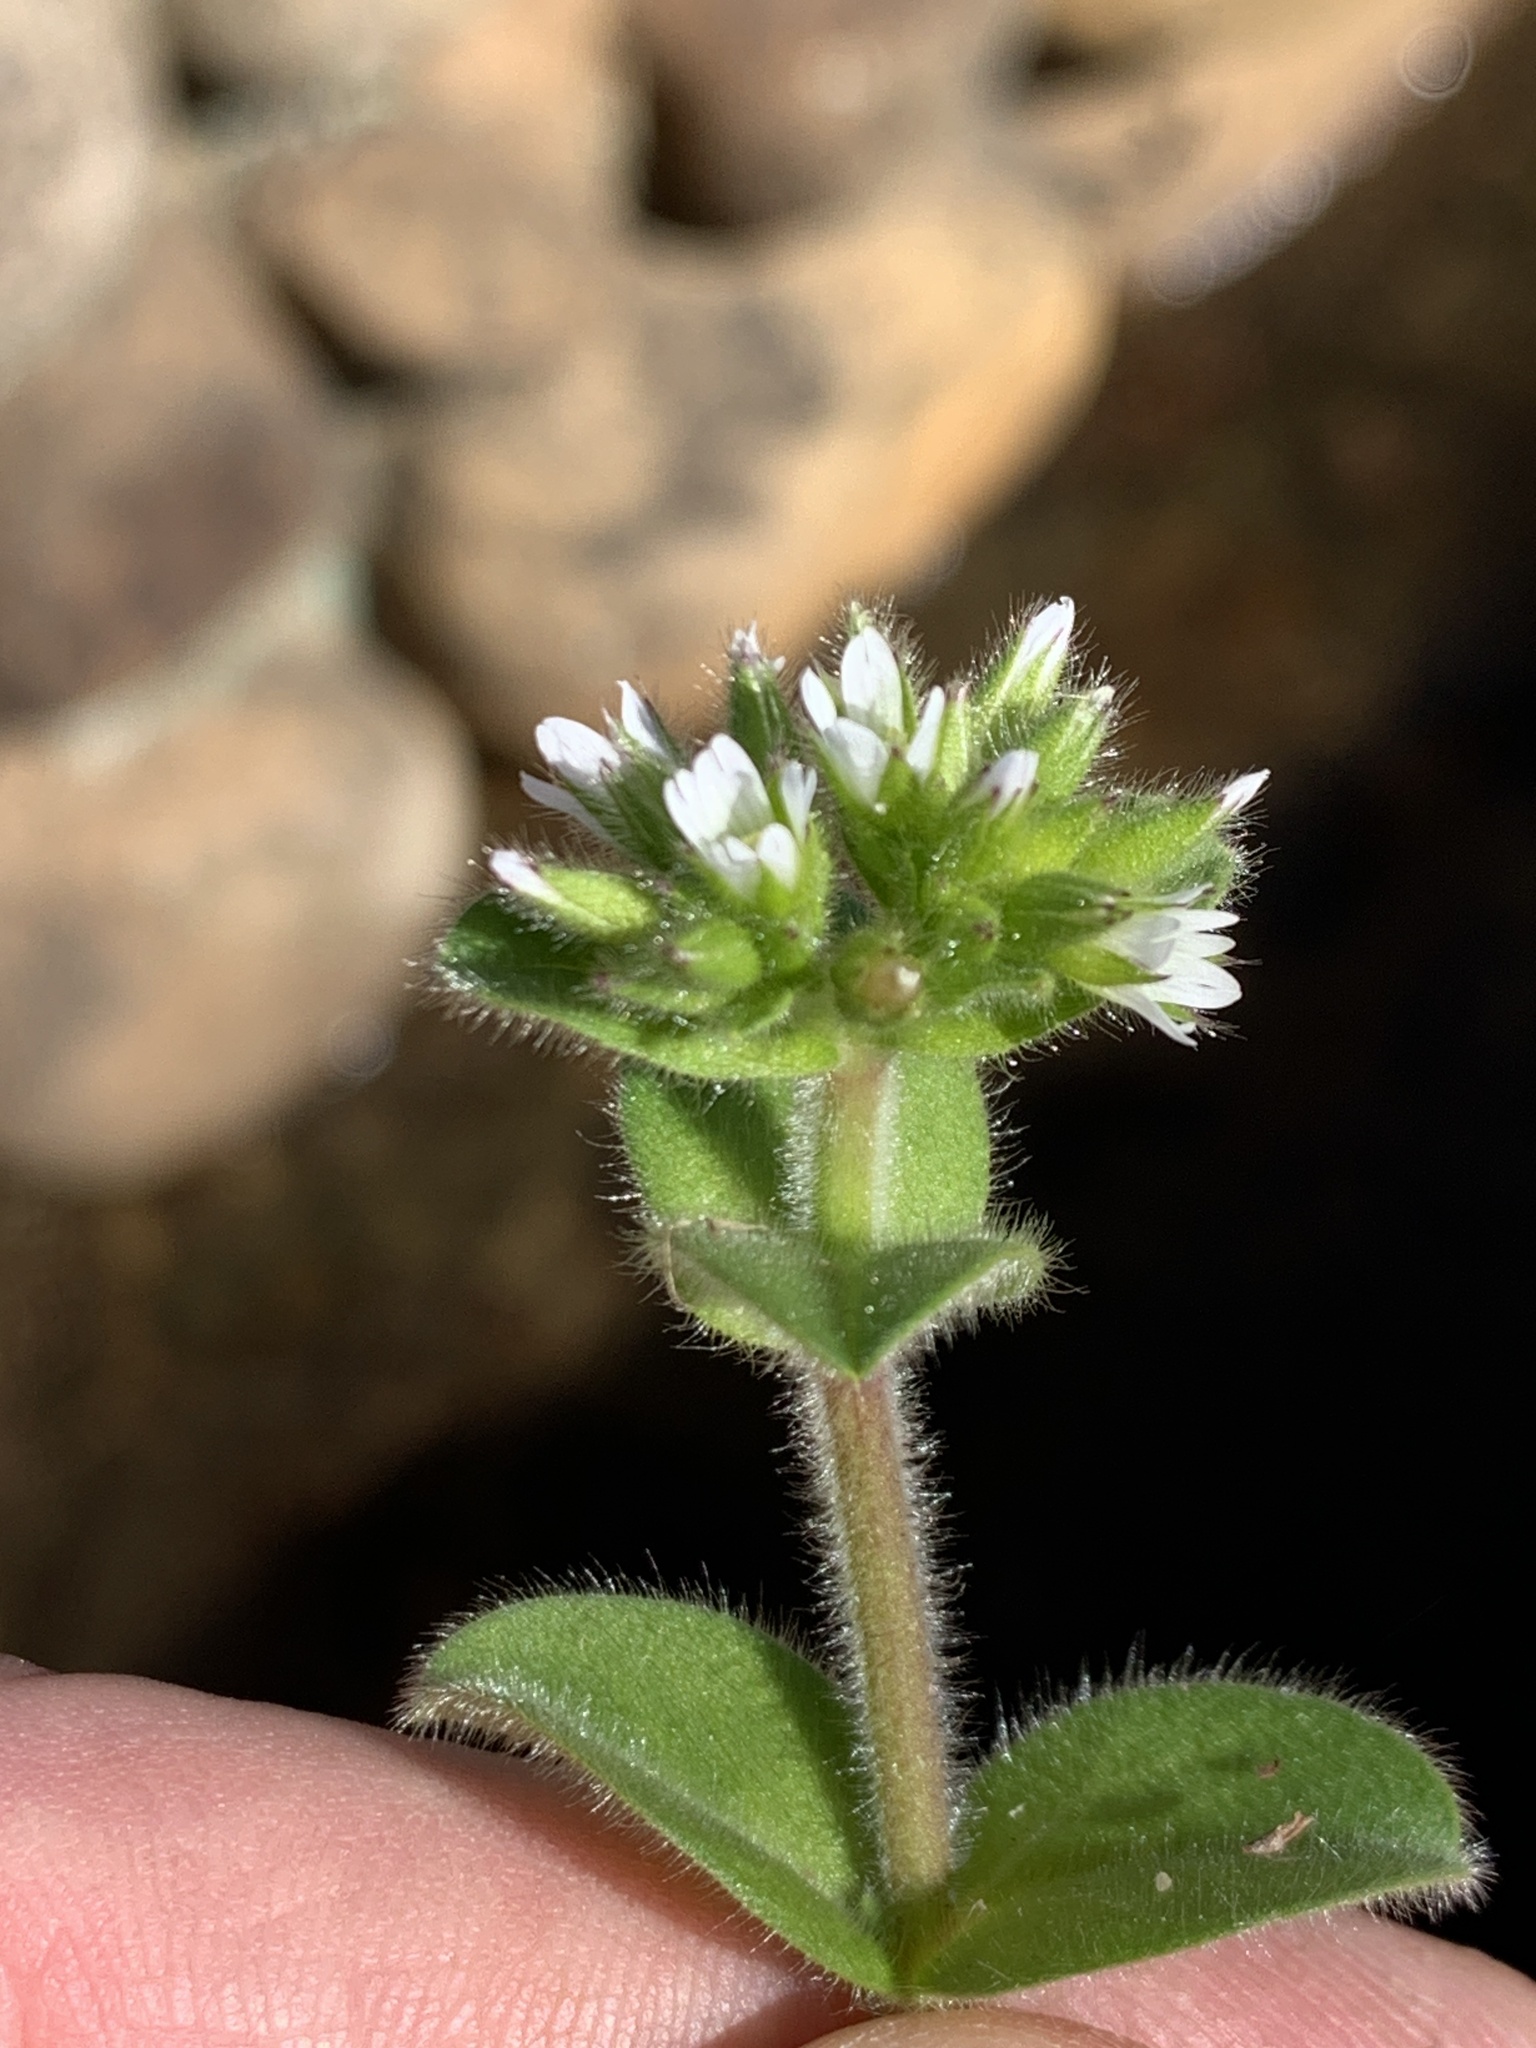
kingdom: Plantae
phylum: Tracheophyta
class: Magnoliopsida
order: Caryophyllales
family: Caryophyllaceae
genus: Cerastium
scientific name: Cerastium glomeratum
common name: Sticky chickweed
